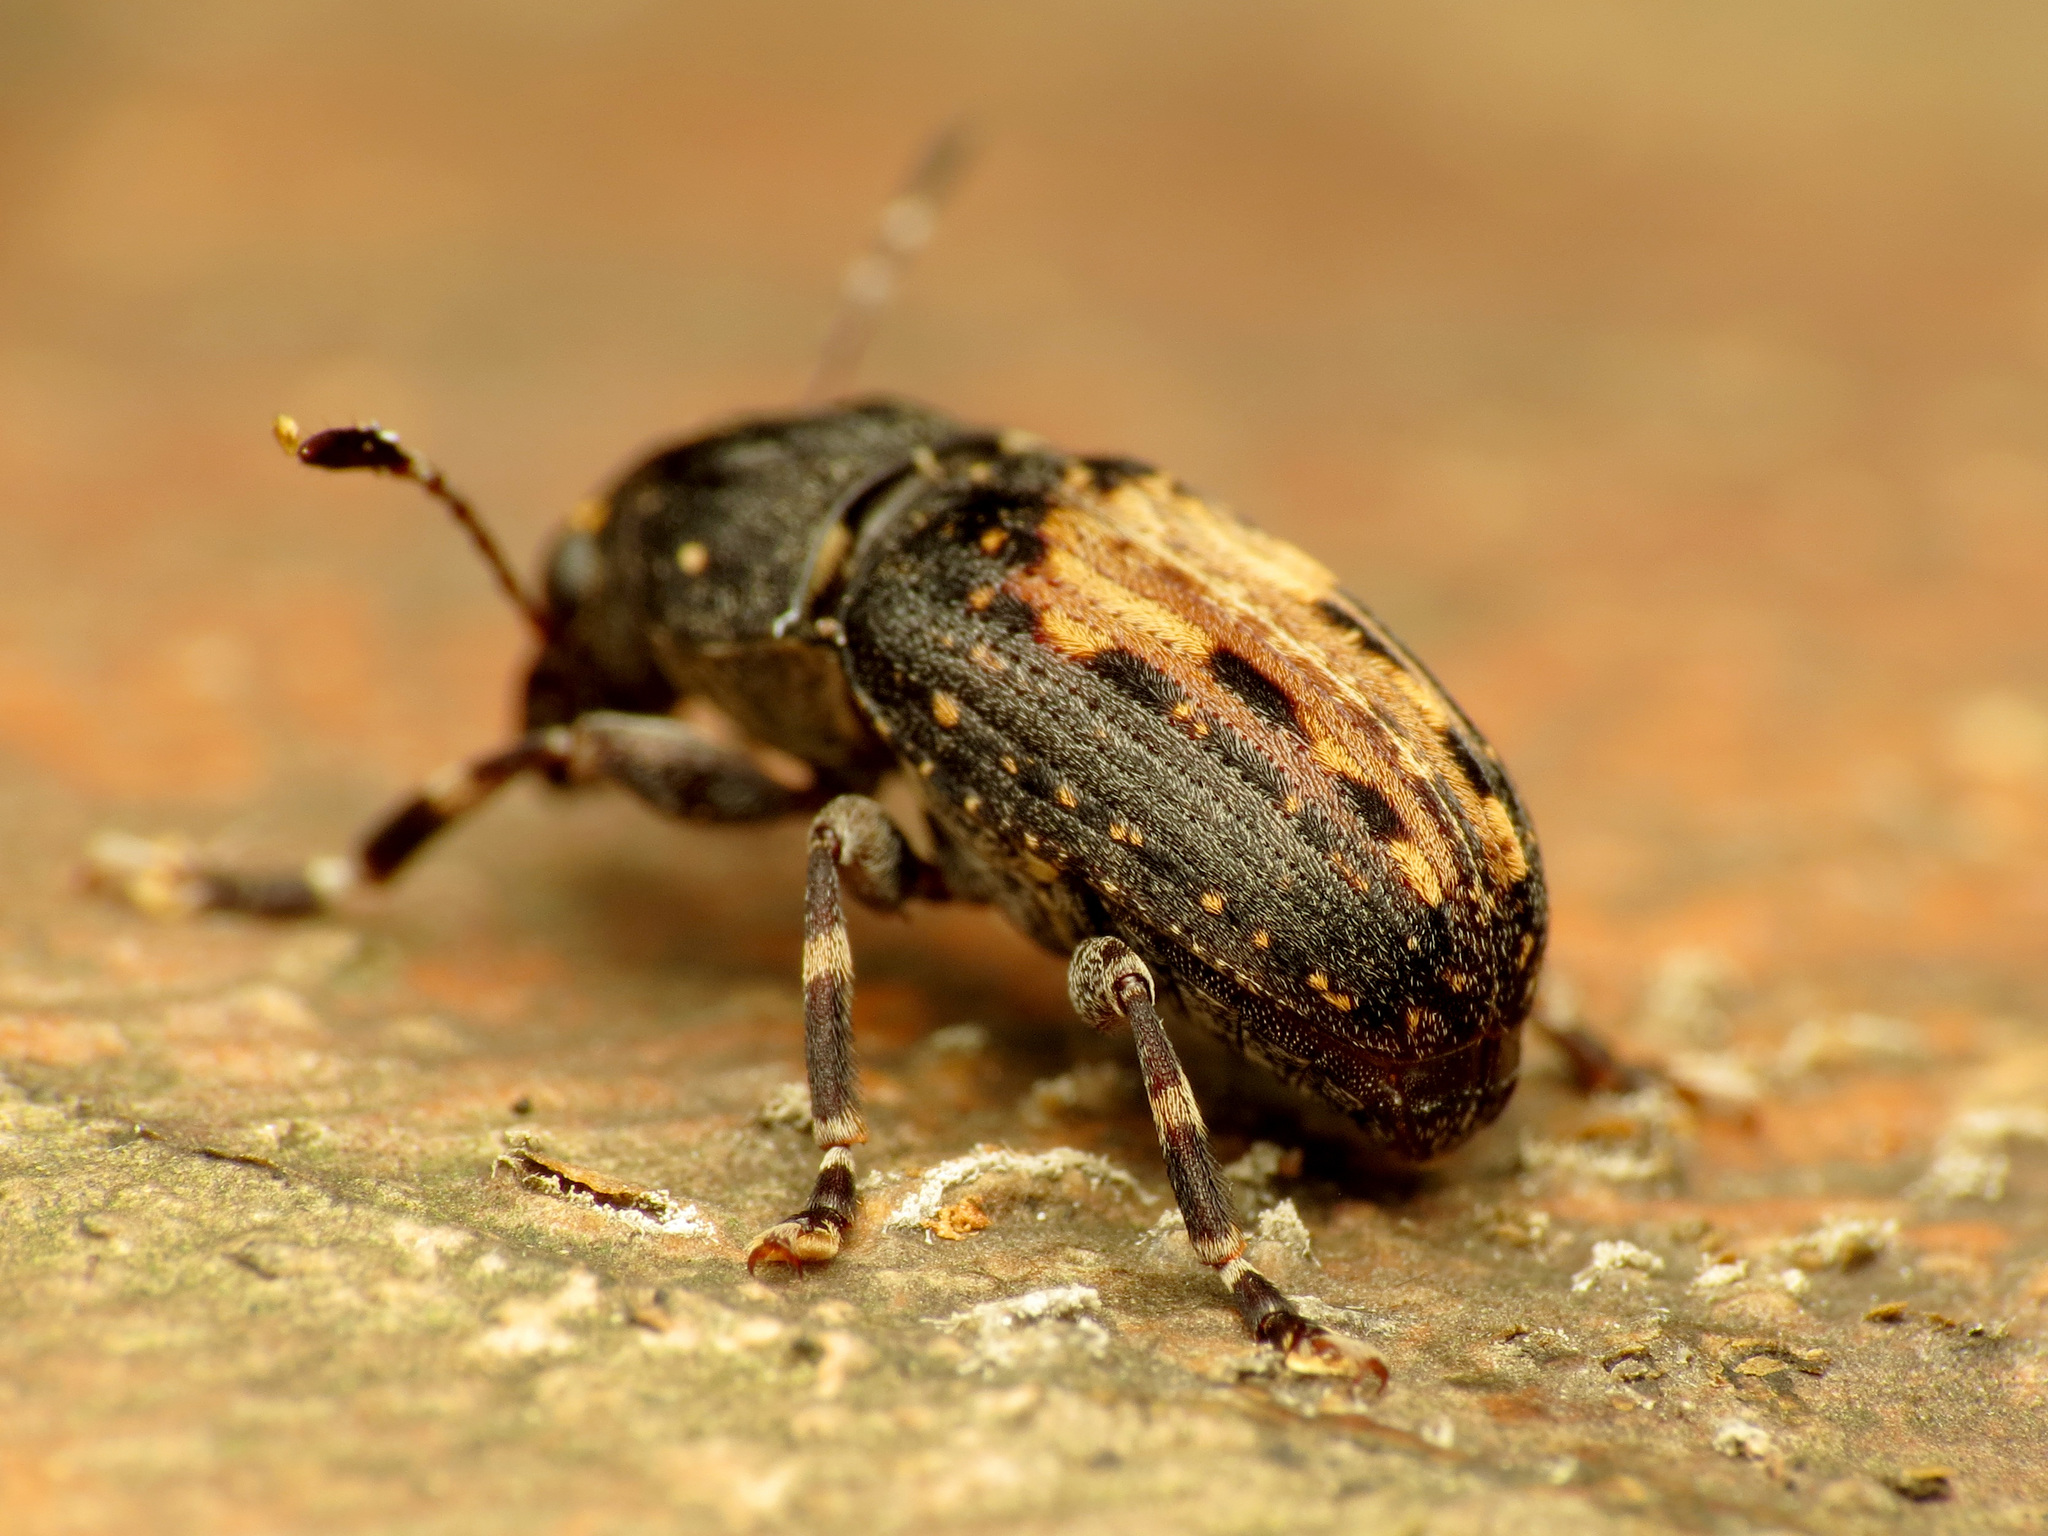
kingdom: Animalia
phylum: Arthropoda
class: Insecta
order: Coleoptera
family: Anthribidae
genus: Piesocorynus
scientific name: Piesocorynus plagifer
